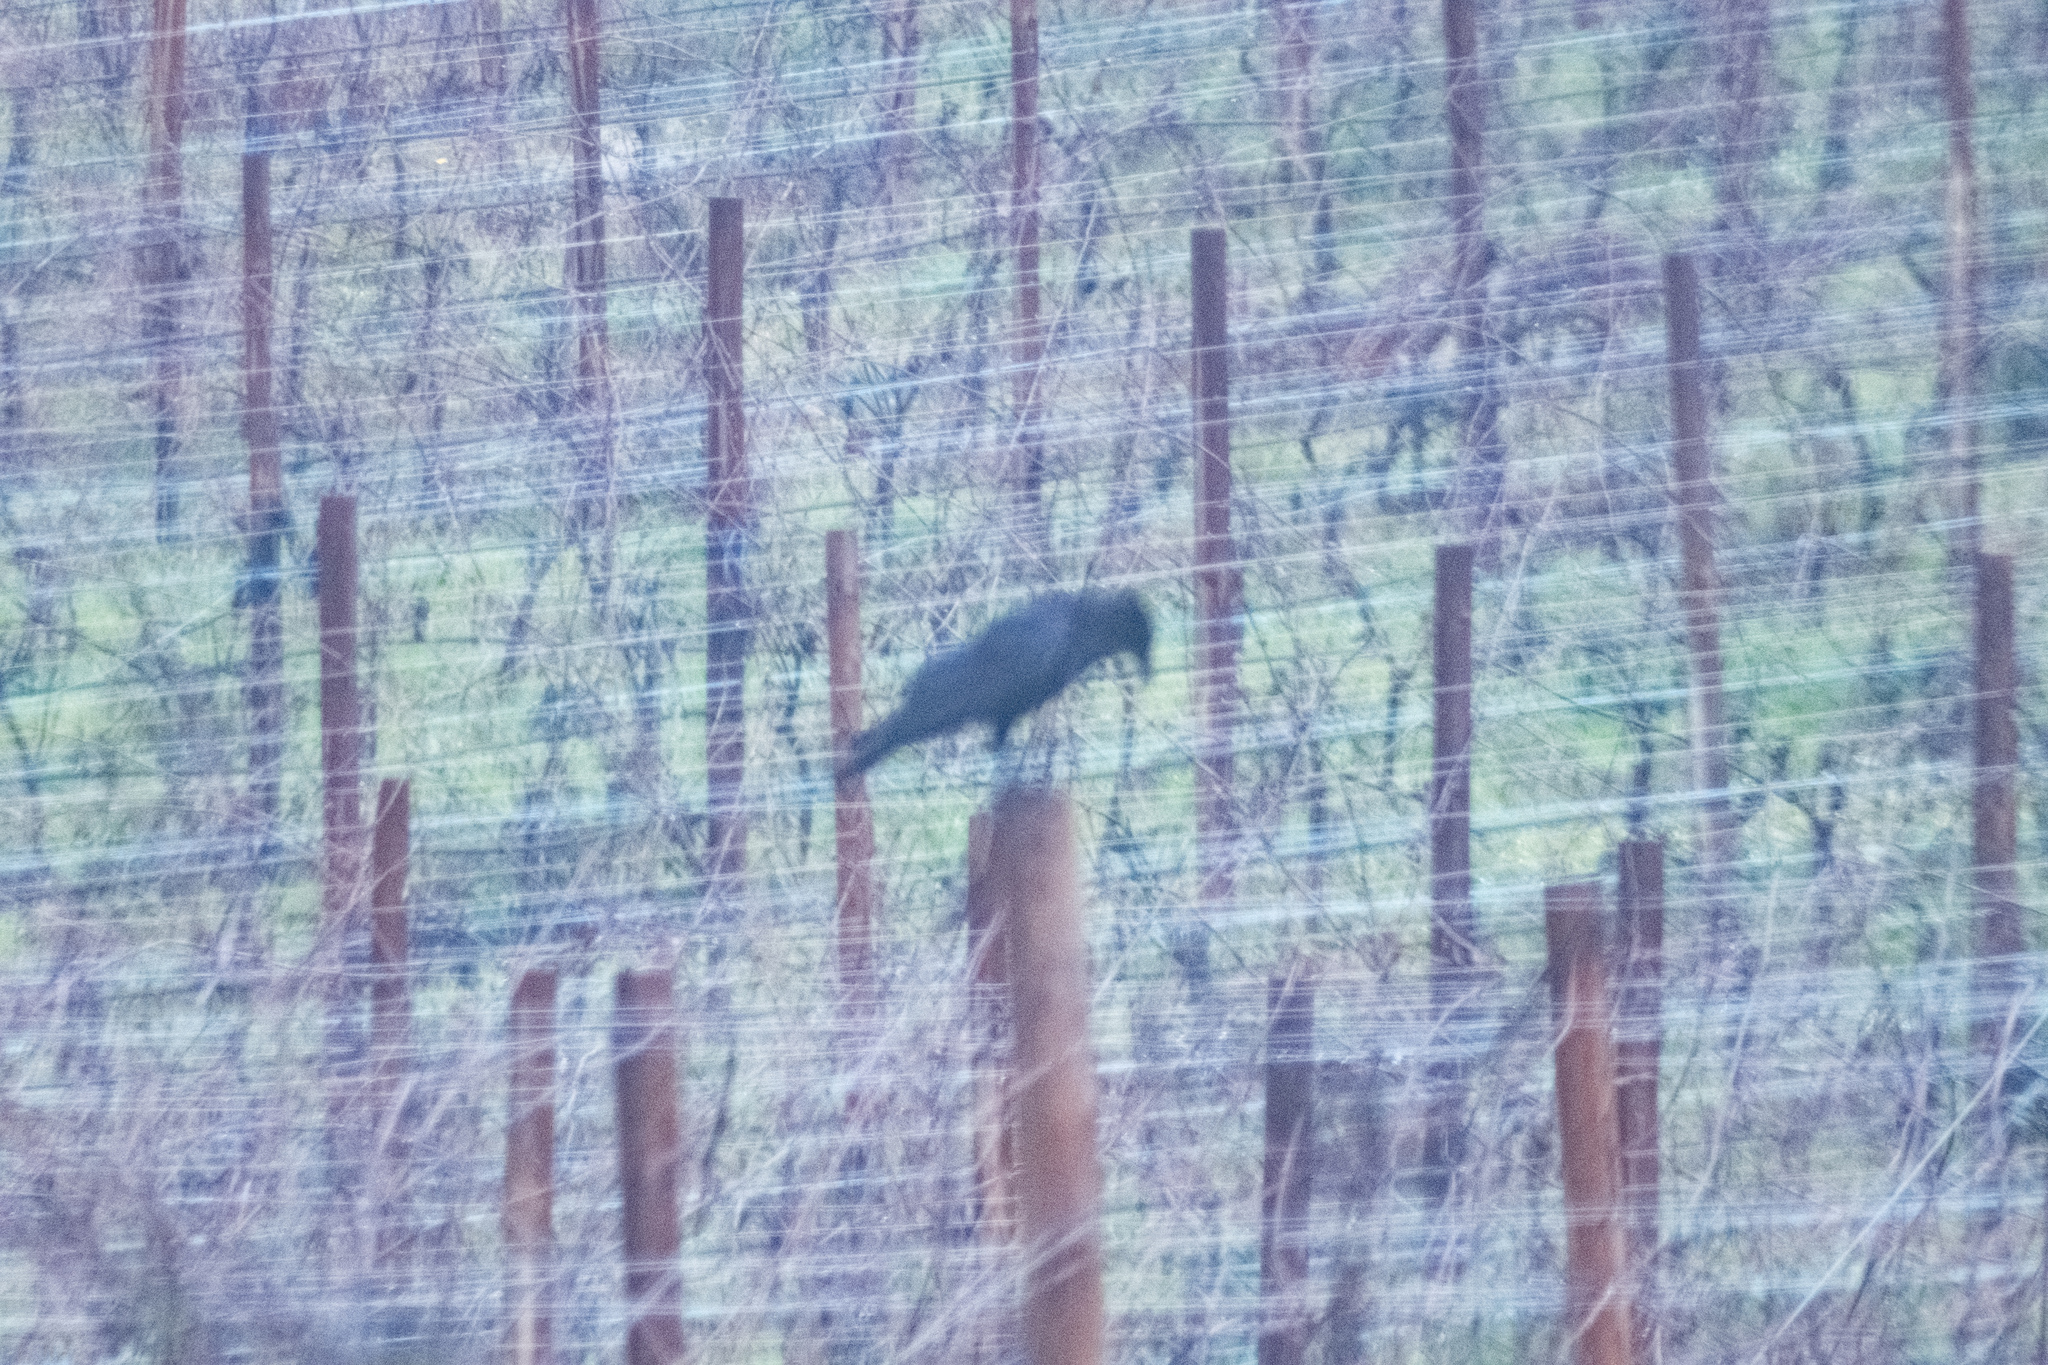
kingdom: Animalia
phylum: Chordata
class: Aves
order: Passeriformes
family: Corvidae
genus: Corvus
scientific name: Corvus corone
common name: Carrion crow
